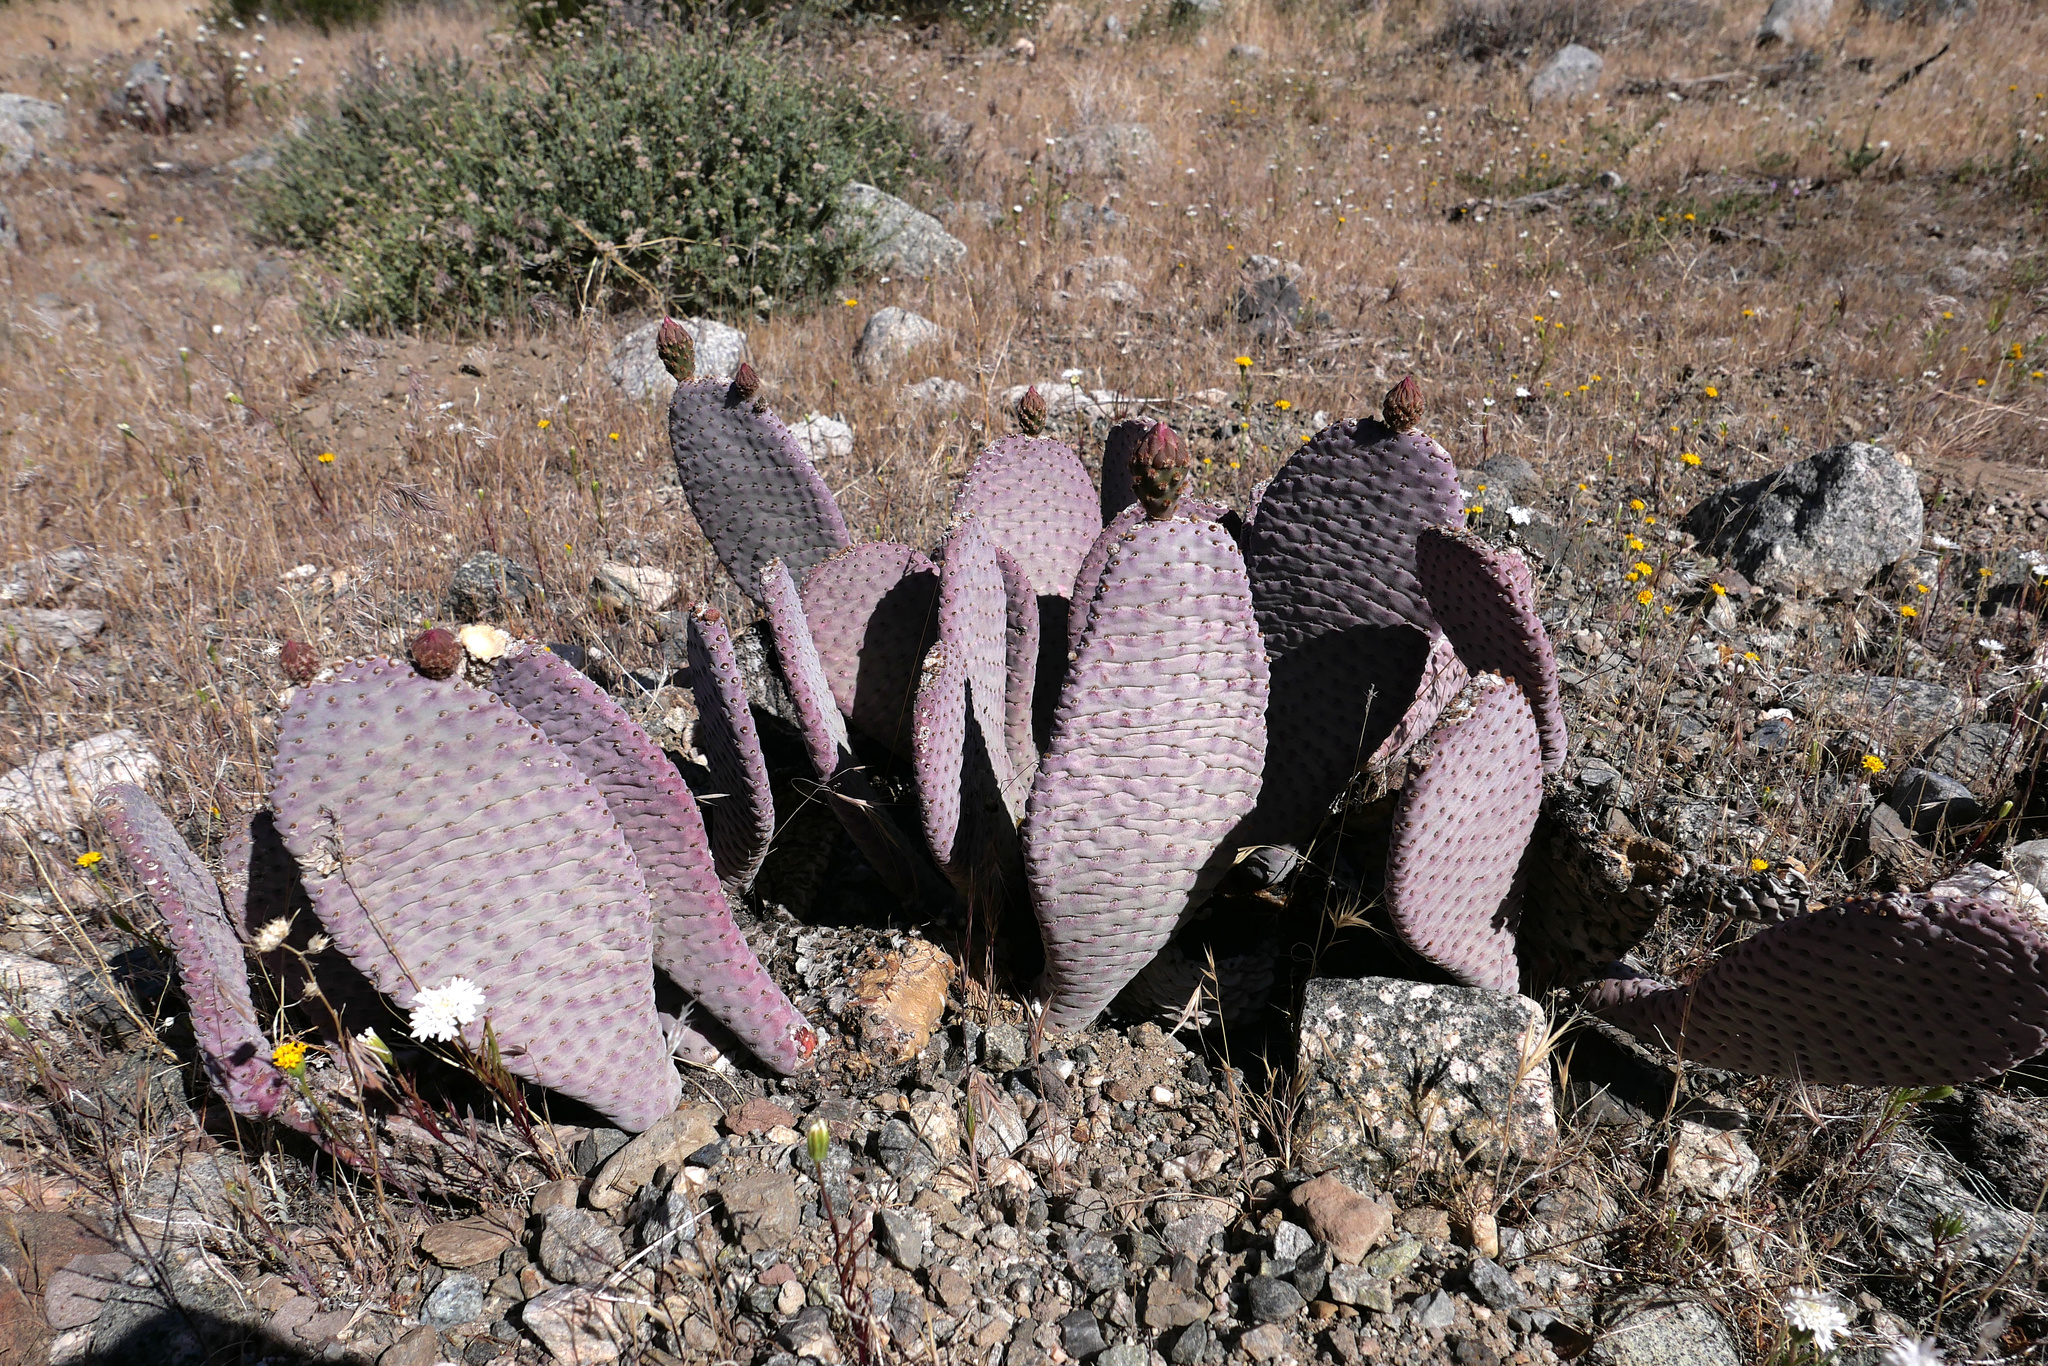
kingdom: Plantae
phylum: Tracheophyta
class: Magnoliopsida
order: Caryophyllales
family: Cactaceae
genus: Opuntia
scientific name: Opuntia basilaris
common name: Beavertail prickly-pear
